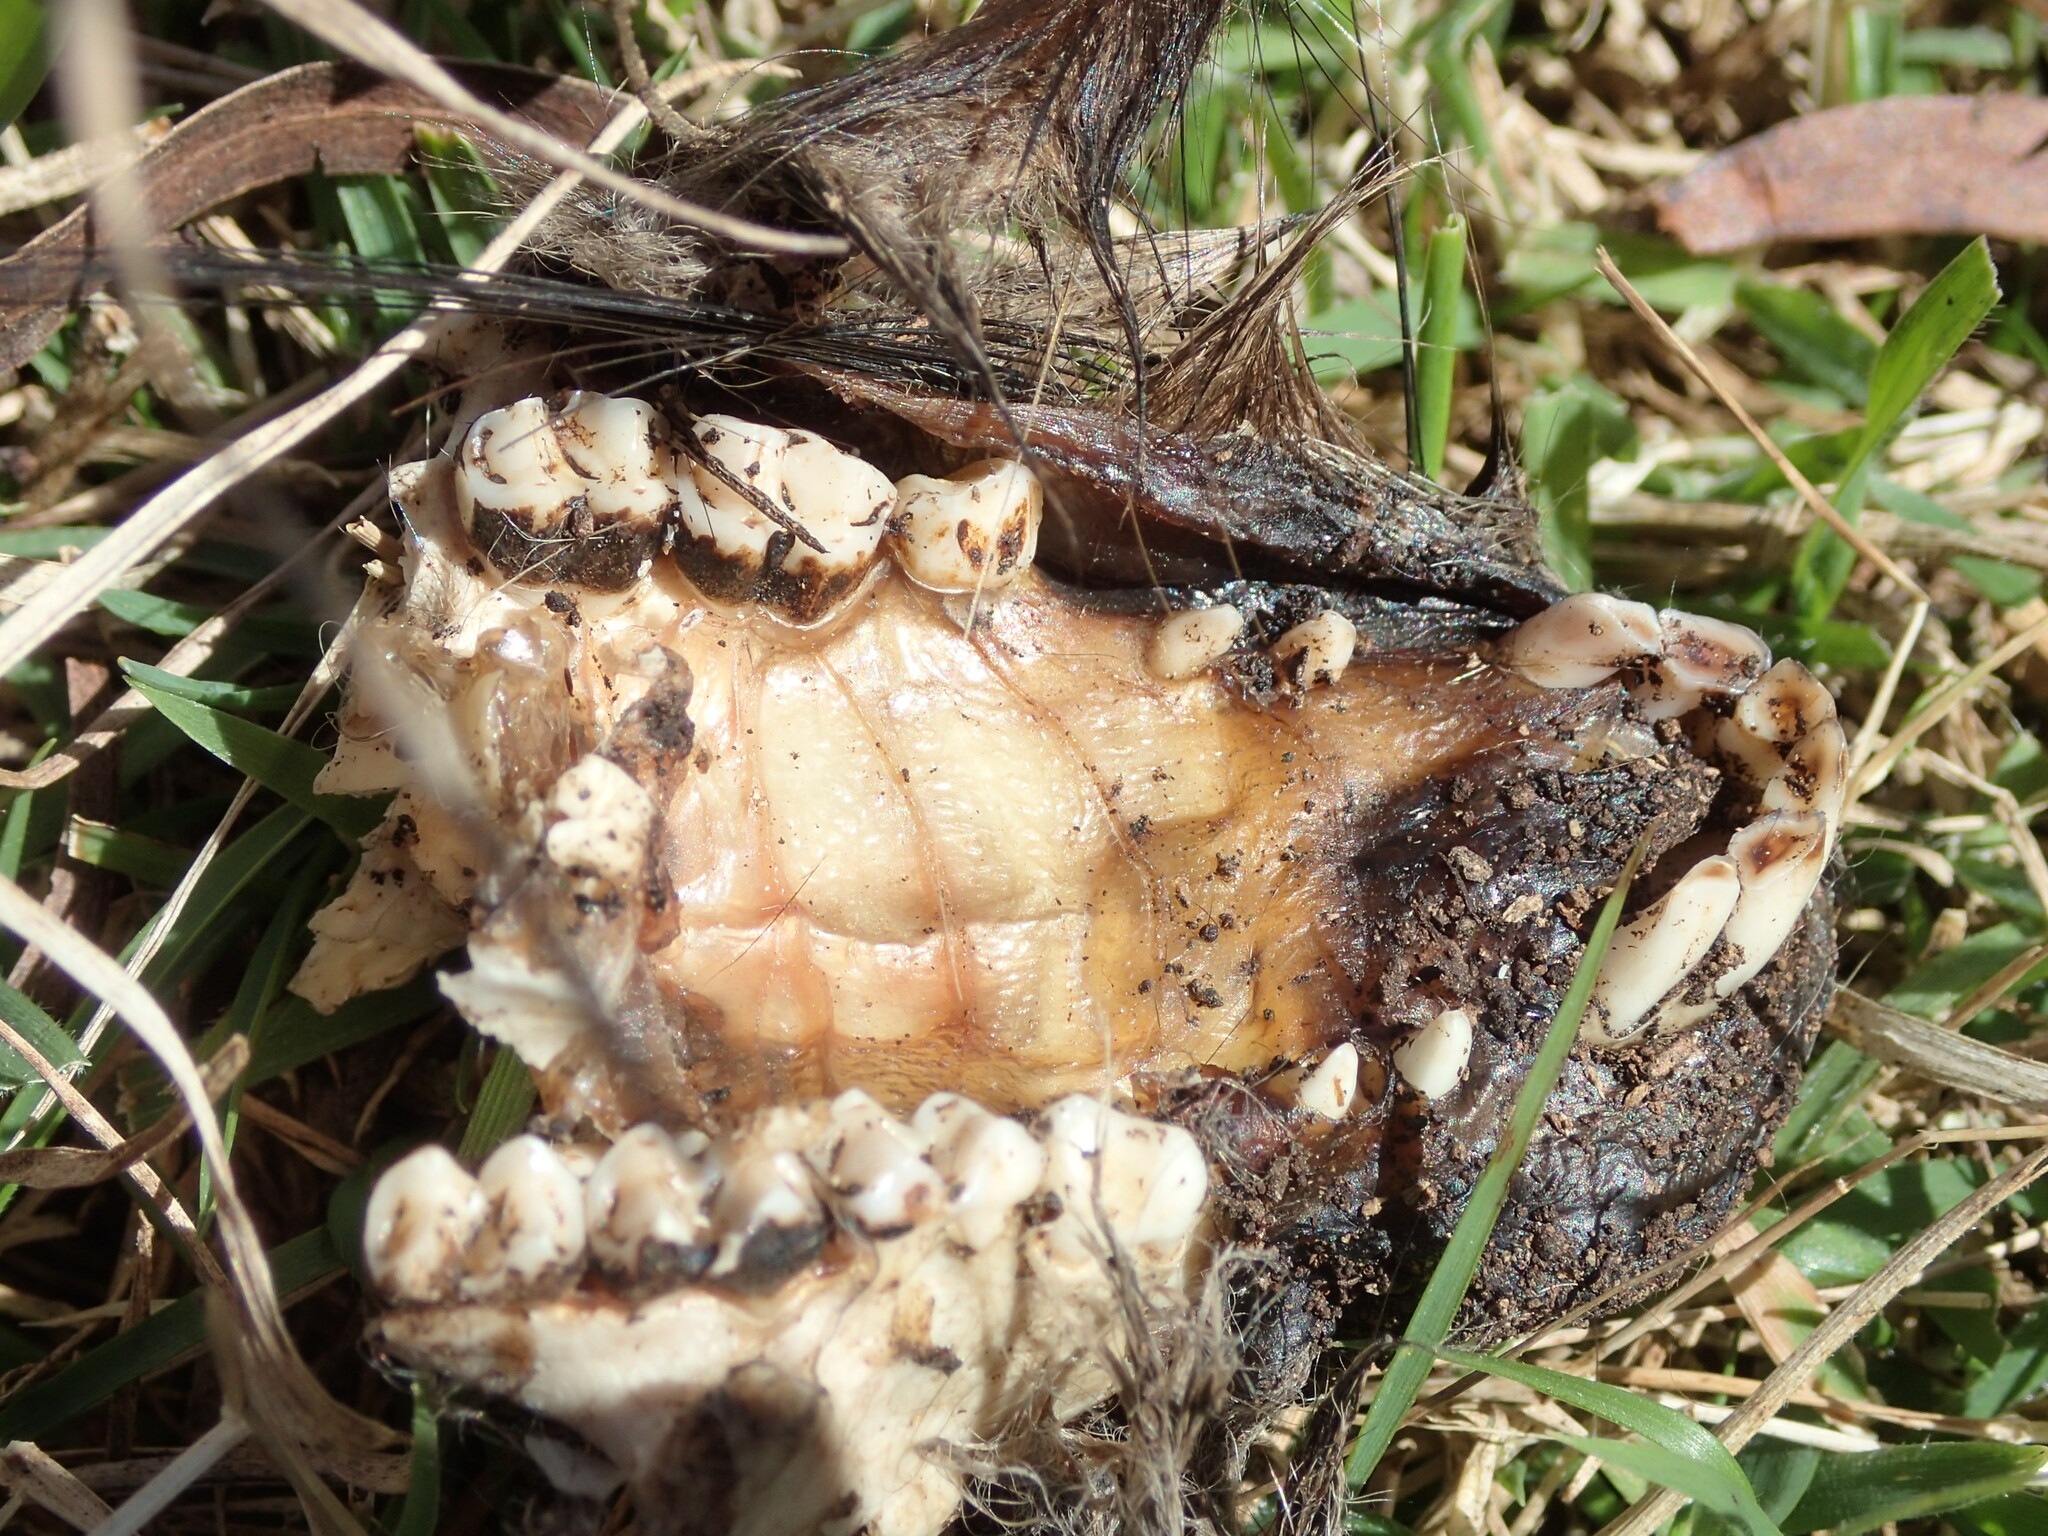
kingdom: Animalia
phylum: Chordata
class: Mammalia
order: Diprotodontia
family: Phalangeridae
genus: Trichosurus
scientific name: Trichosurus vulpecula
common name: Common brushtail
